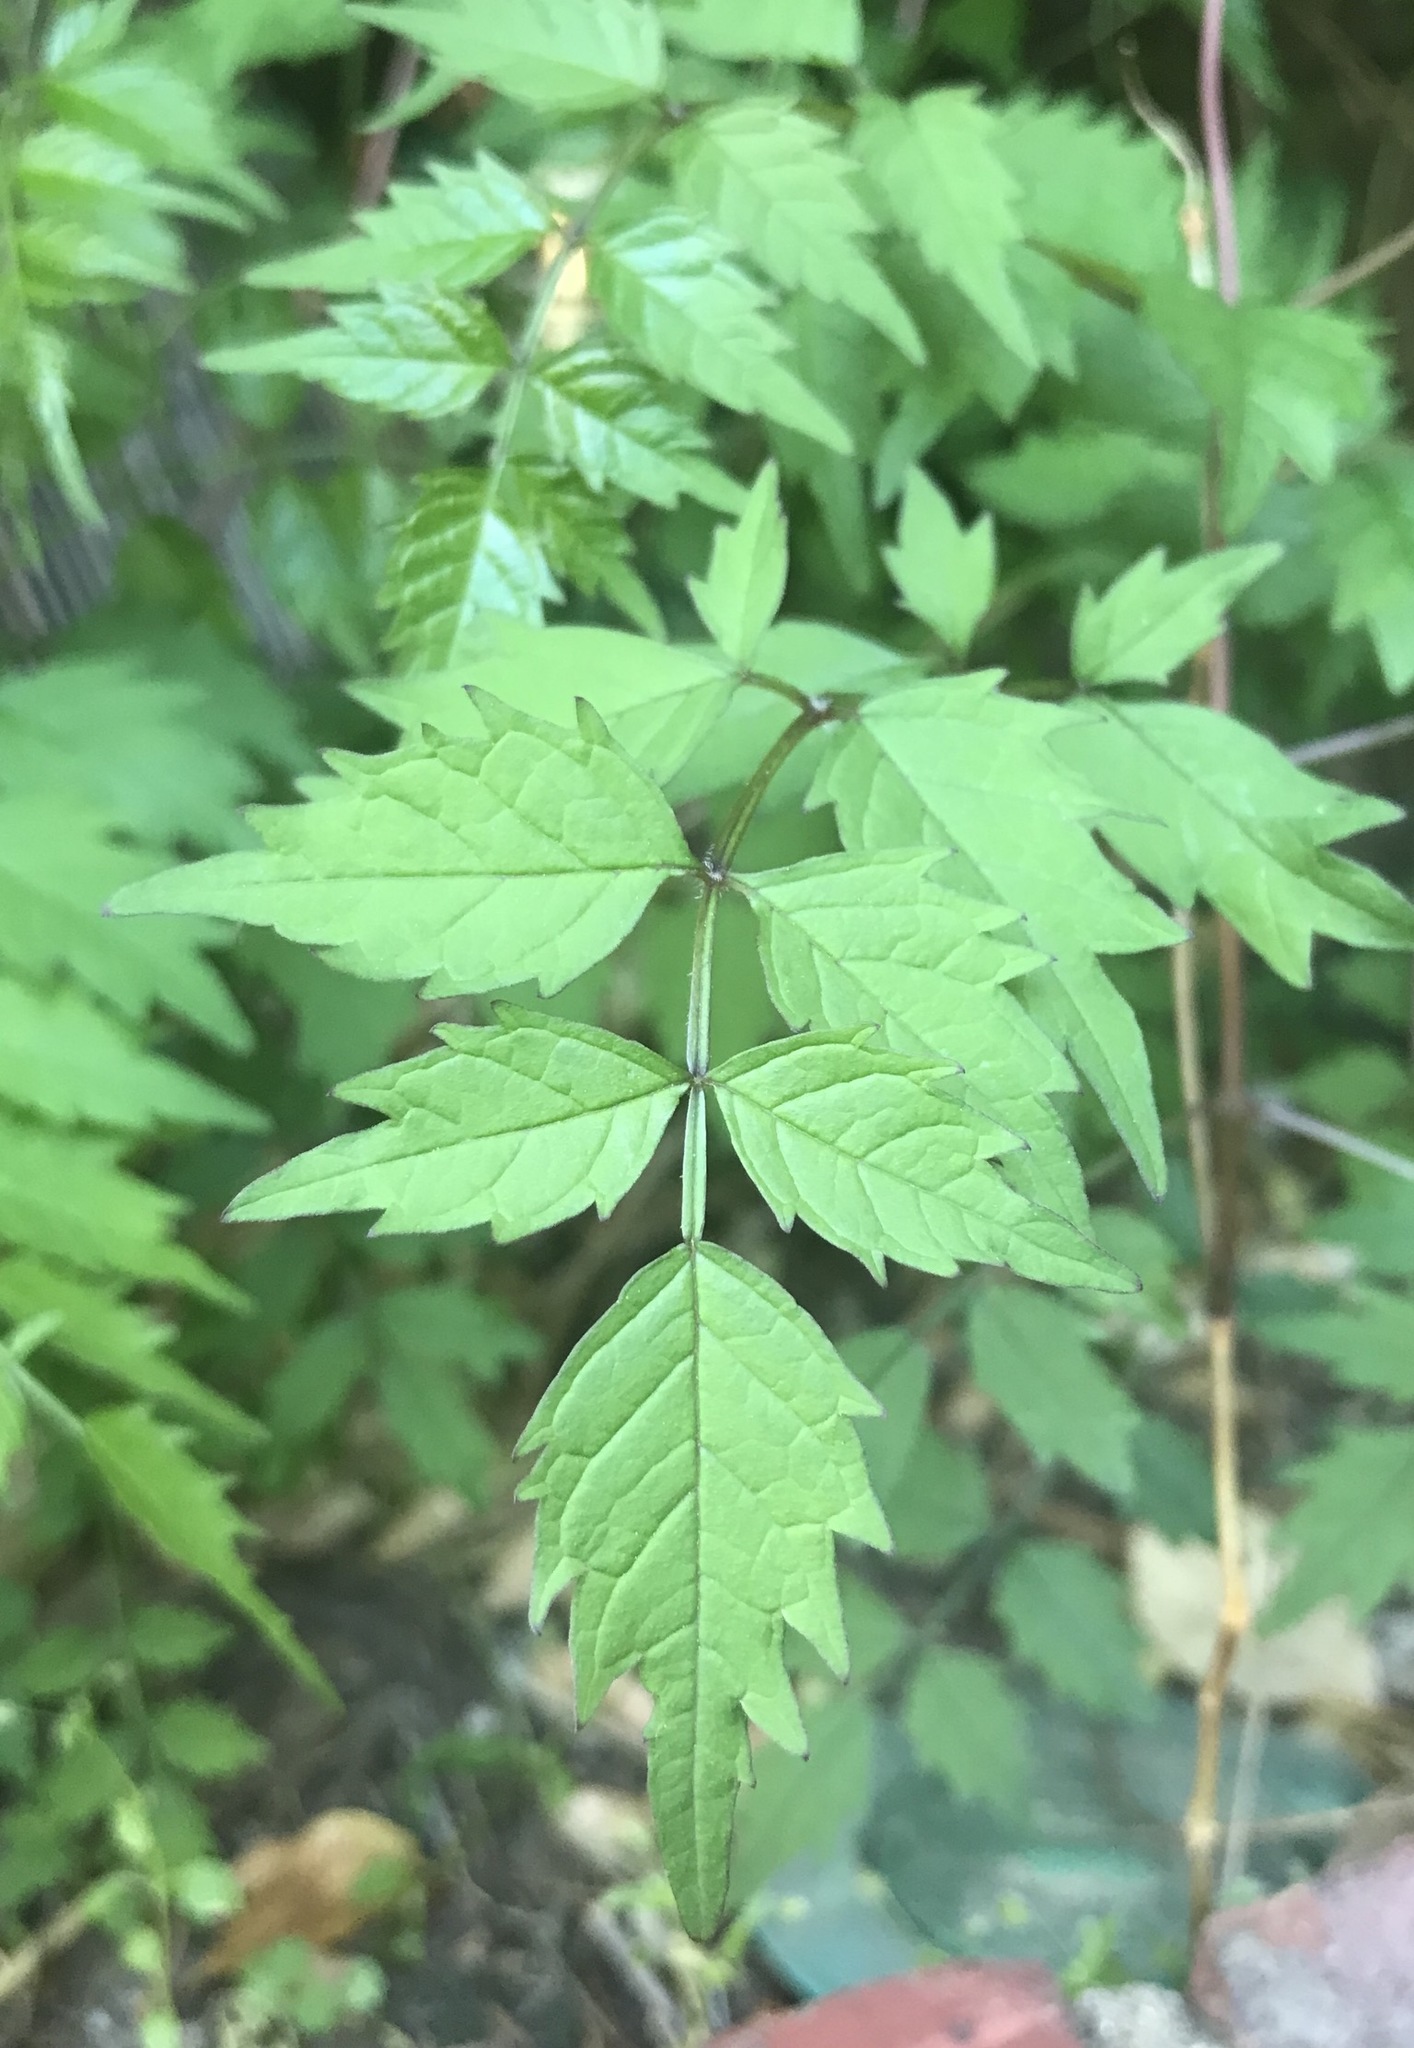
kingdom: Plantae
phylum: Tracheophyta
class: Magnoliopsida
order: Lamiales
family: Bignoniaceae
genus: Campsis
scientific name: Campsis radicans
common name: Trumpet-creeper
